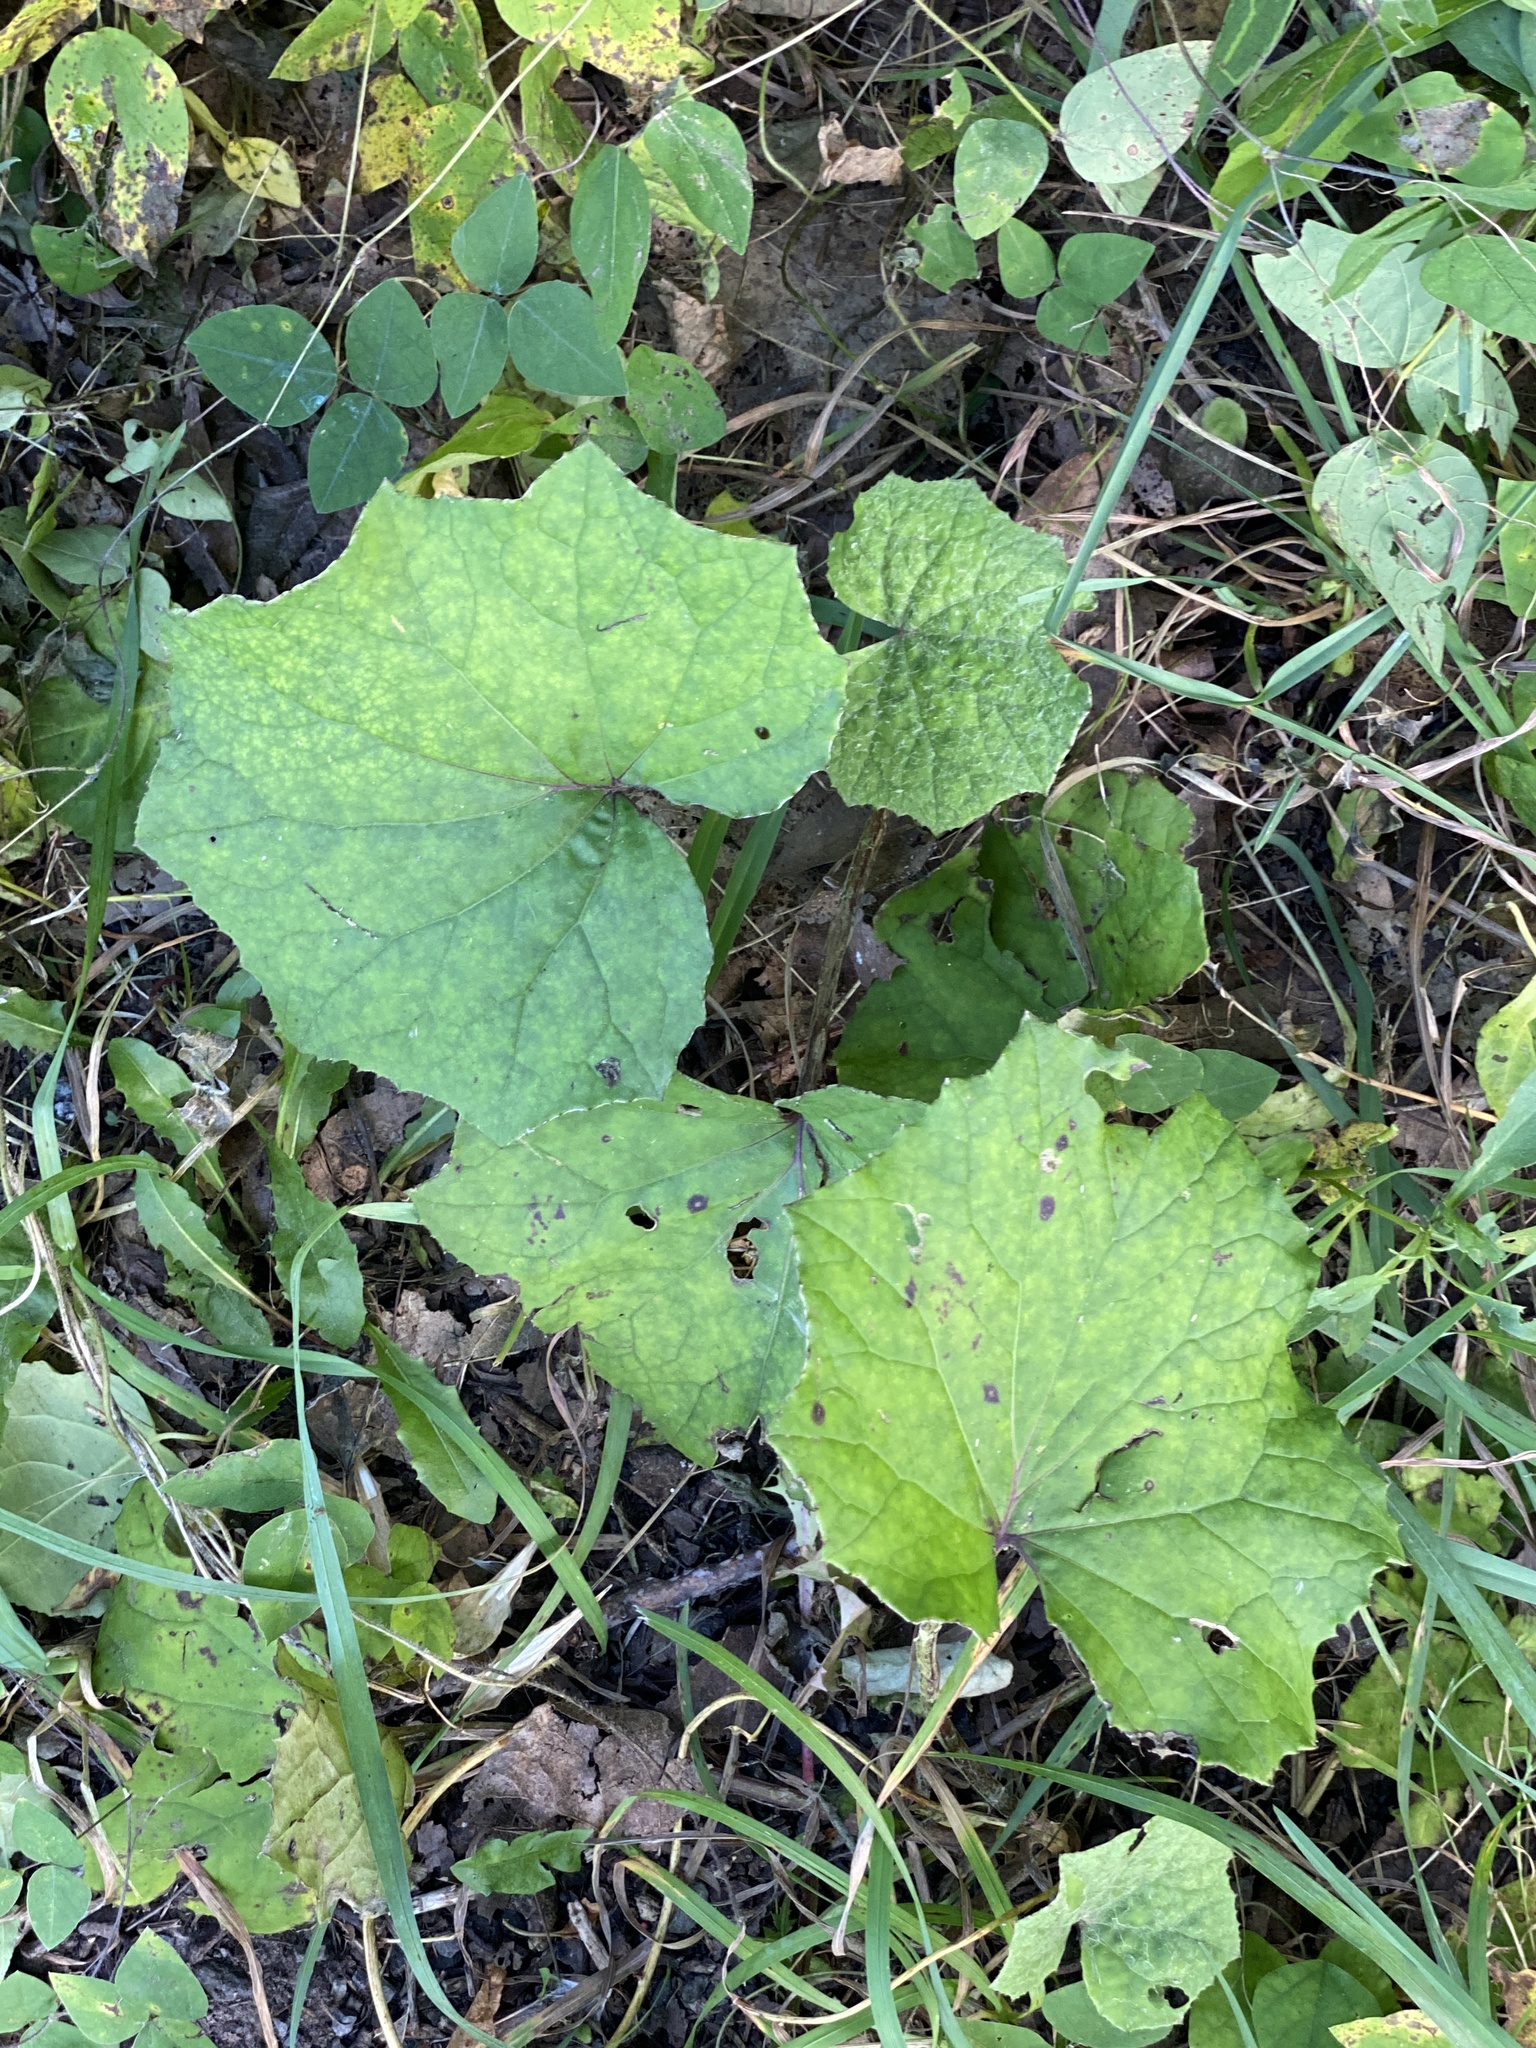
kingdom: Plantae
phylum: Tracheophyta
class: Magnoliopsida
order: Asterales
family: Asteraceae
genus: Tussilago
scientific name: Tussilago farfara
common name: Coltsfoot
